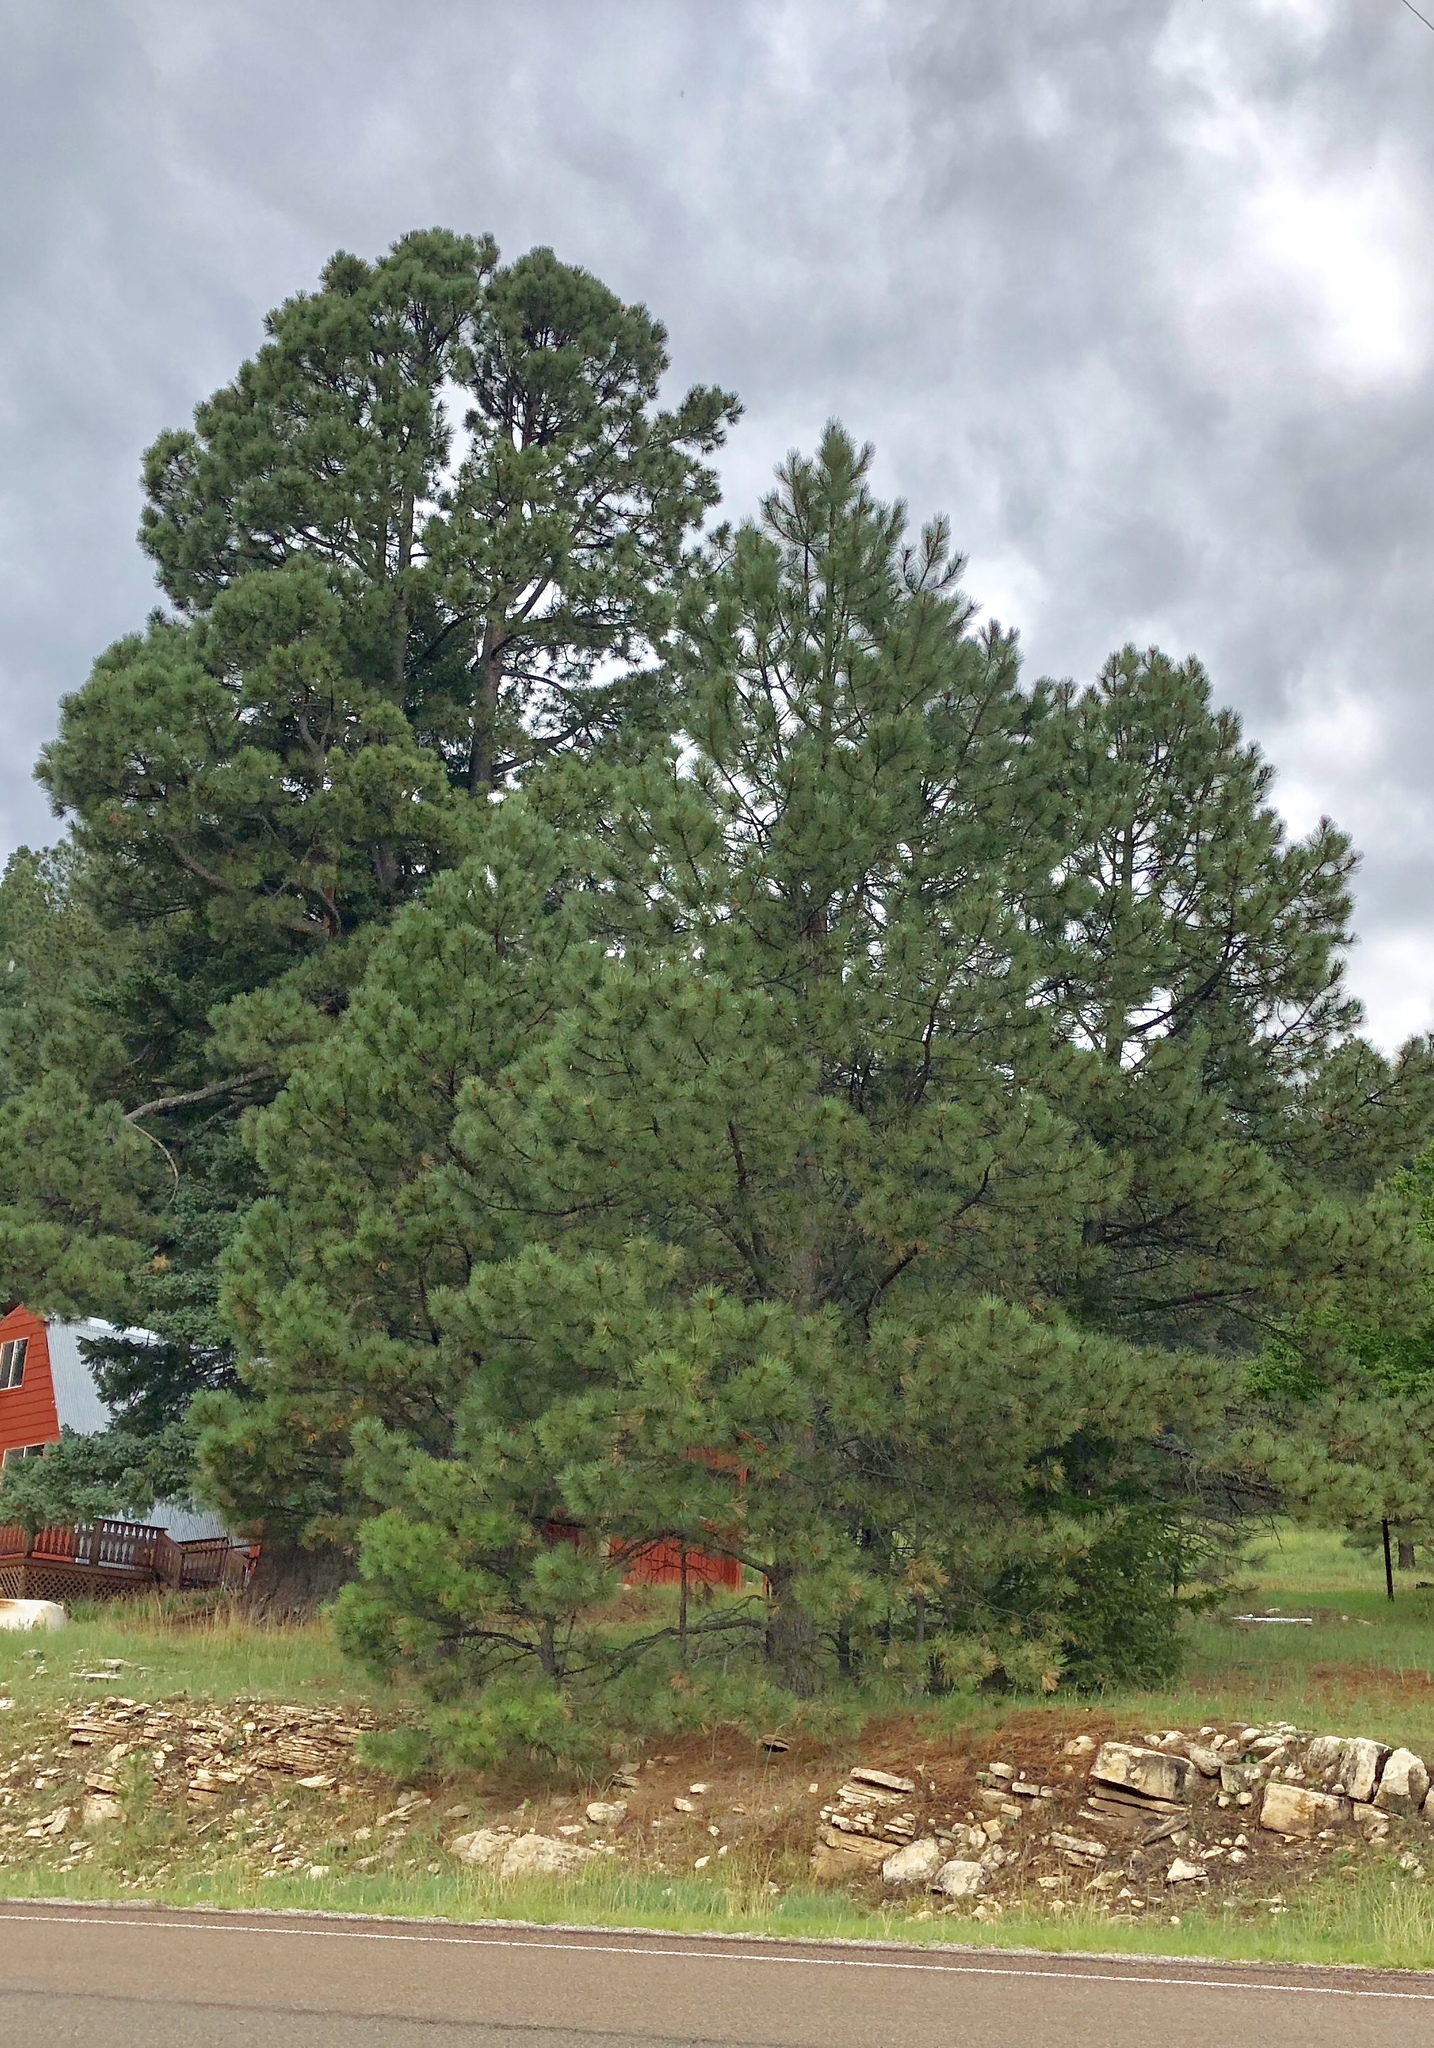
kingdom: Plantae
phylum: Tracheophyta
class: Pinopsida
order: Pinales
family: Pinaceae
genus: Pinus
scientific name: Pinus ponderosa
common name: Western yellow-pine
